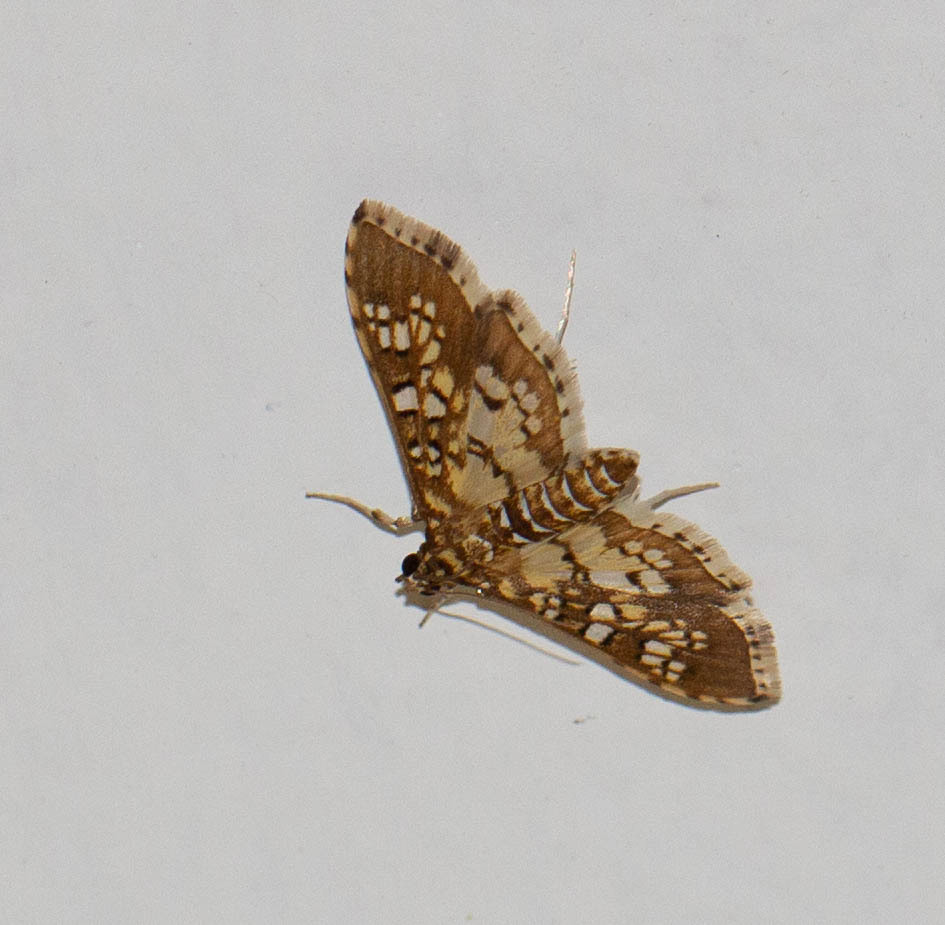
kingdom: Animalia
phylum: Arthropoda
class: Insecta
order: Lepidoptera
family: Crambidae
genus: Samea
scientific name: Samea ecclesialis
